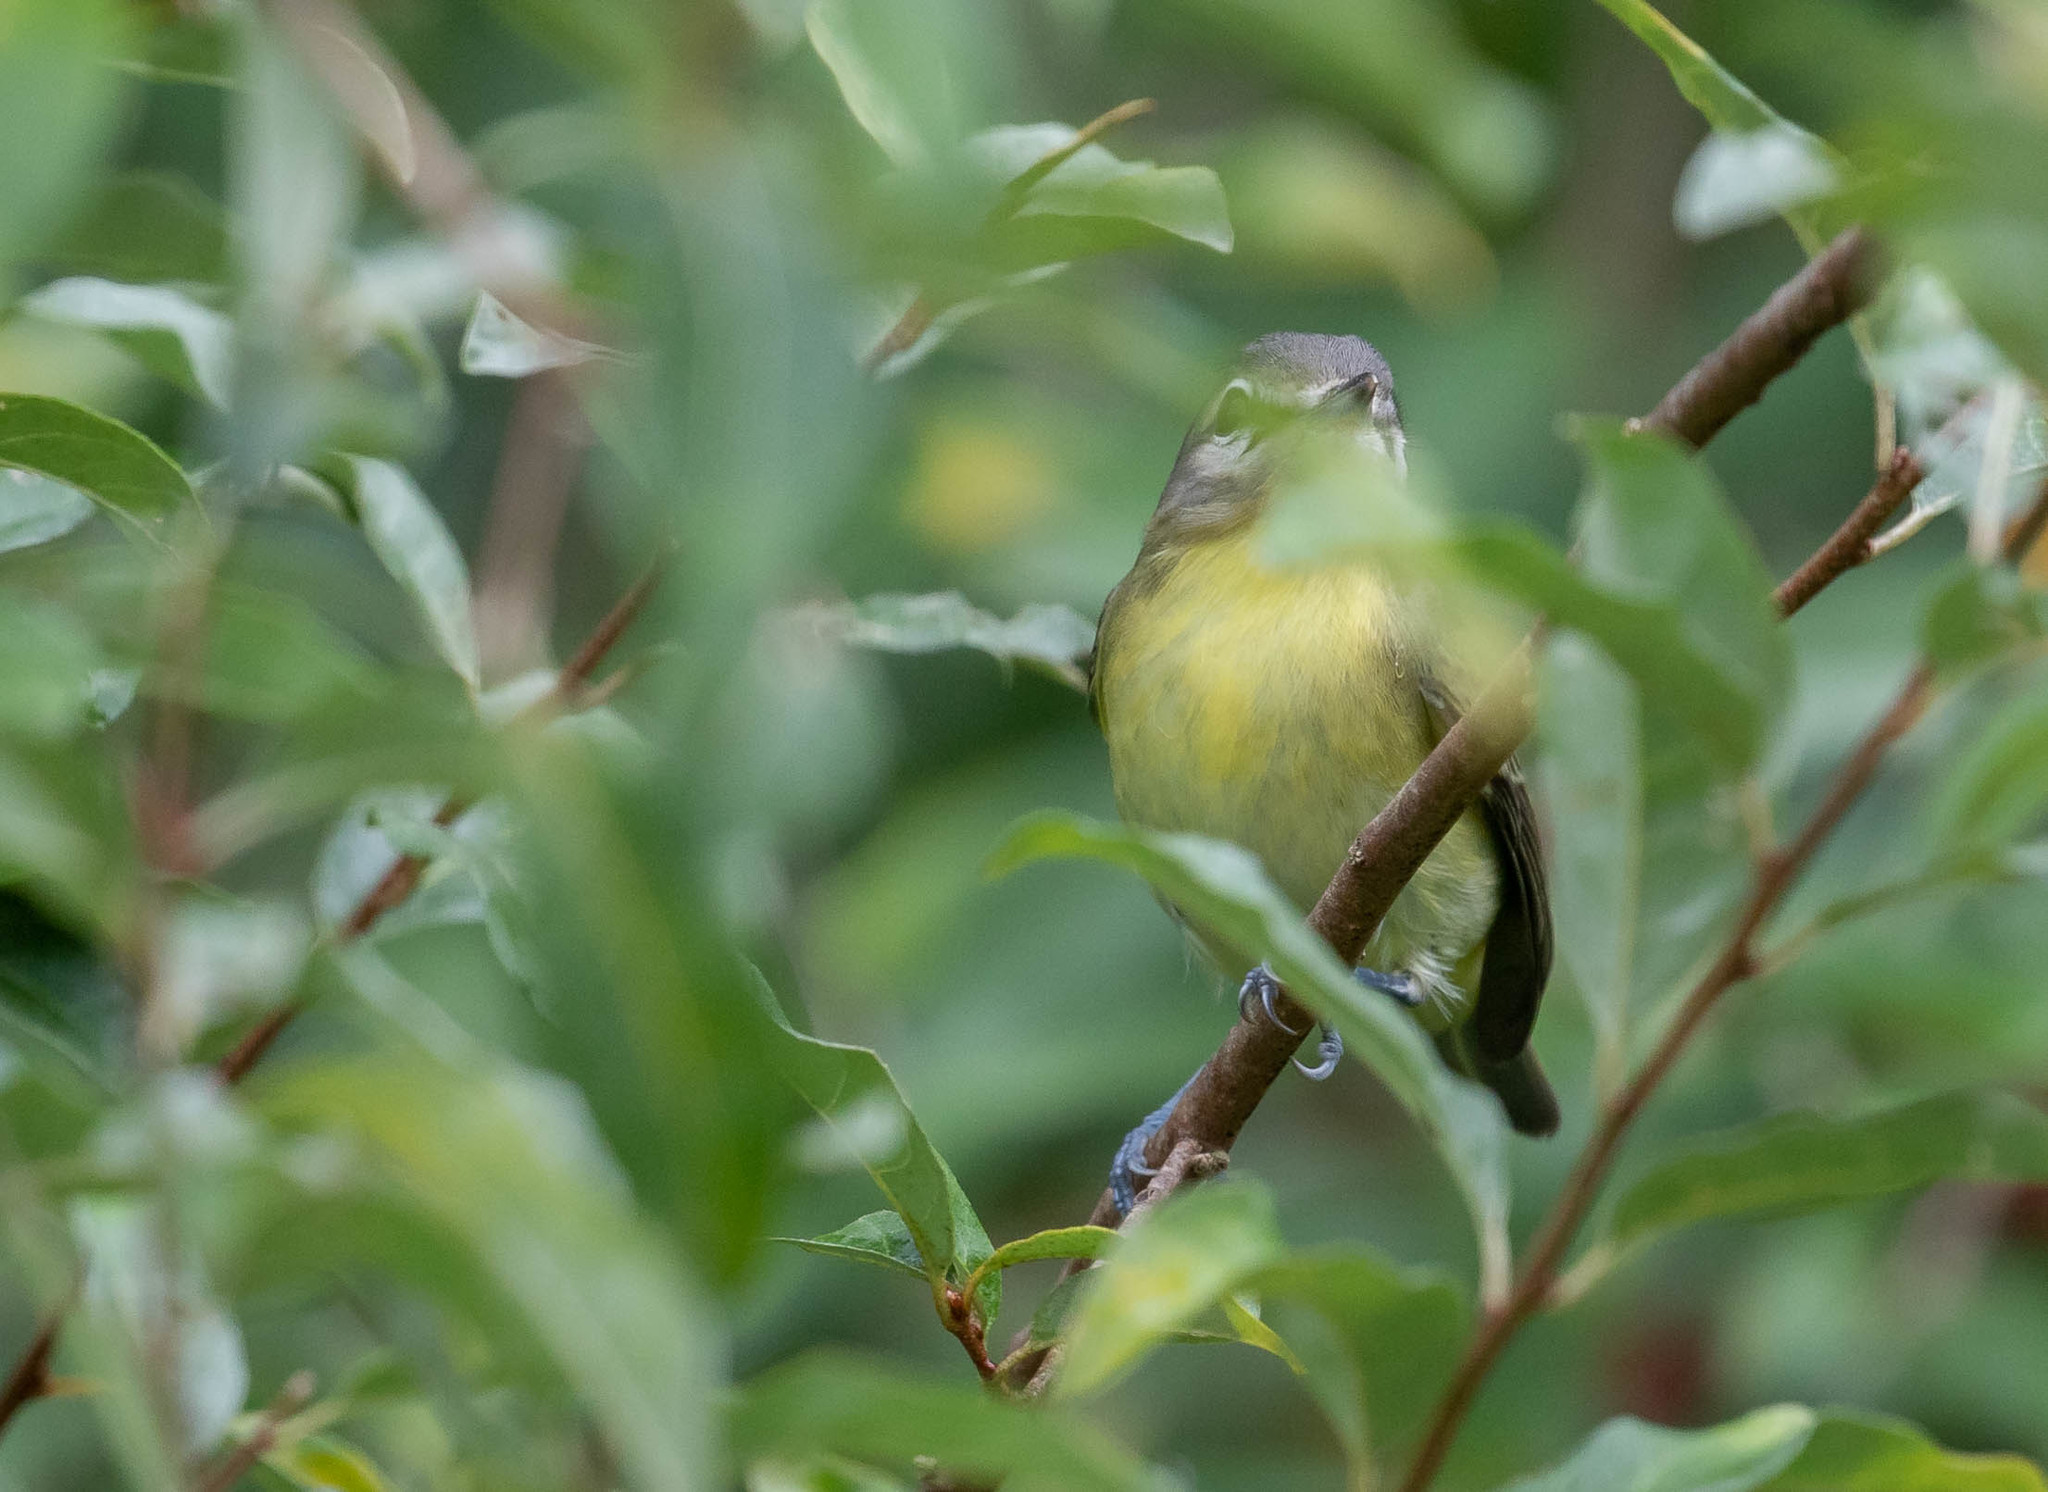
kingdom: Animalia
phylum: Chordata
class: Aves
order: Passeriformes
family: Vireonidae
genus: Vireo
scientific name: Vireo philadelphicus
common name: Philadelphia vireo
